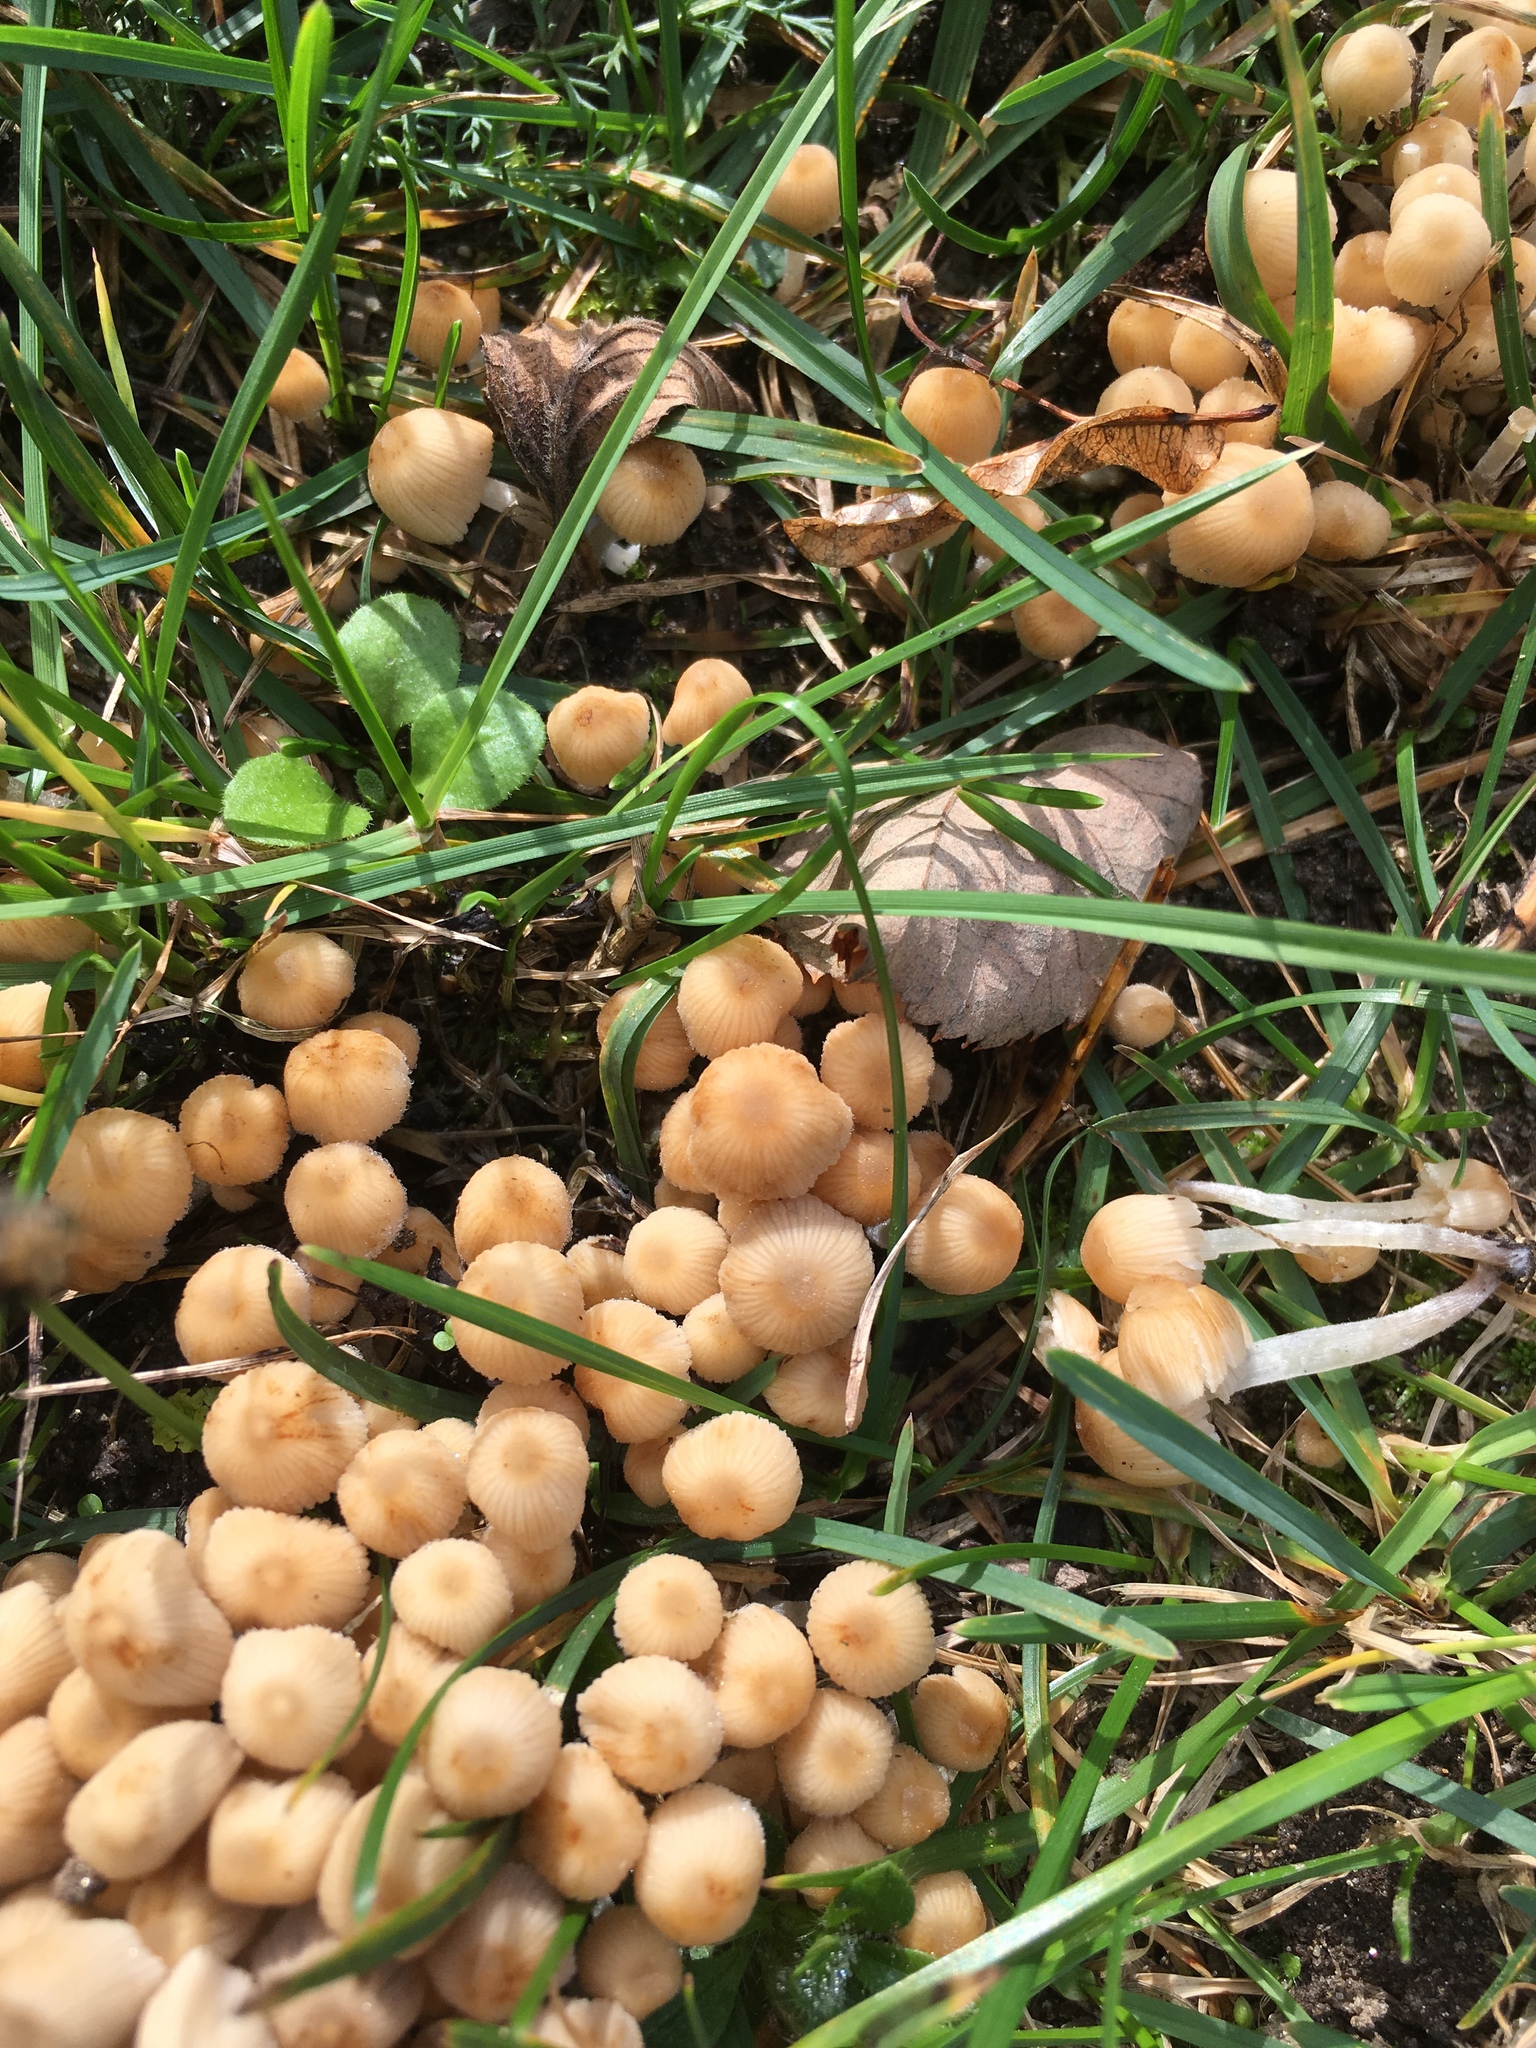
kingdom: Fungi
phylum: Basidiomycota
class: Agaricomycetes
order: Agaricales
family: Psathyrellaceae
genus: Coprinellus
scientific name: Coprinellus micaceus
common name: Glistening ink-cap
